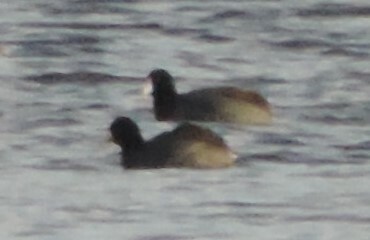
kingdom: Animalia
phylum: Chordata
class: Aves
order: Gruiformes
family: Rallidae
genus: Fulica
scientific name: Fulica americana
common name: American coot
